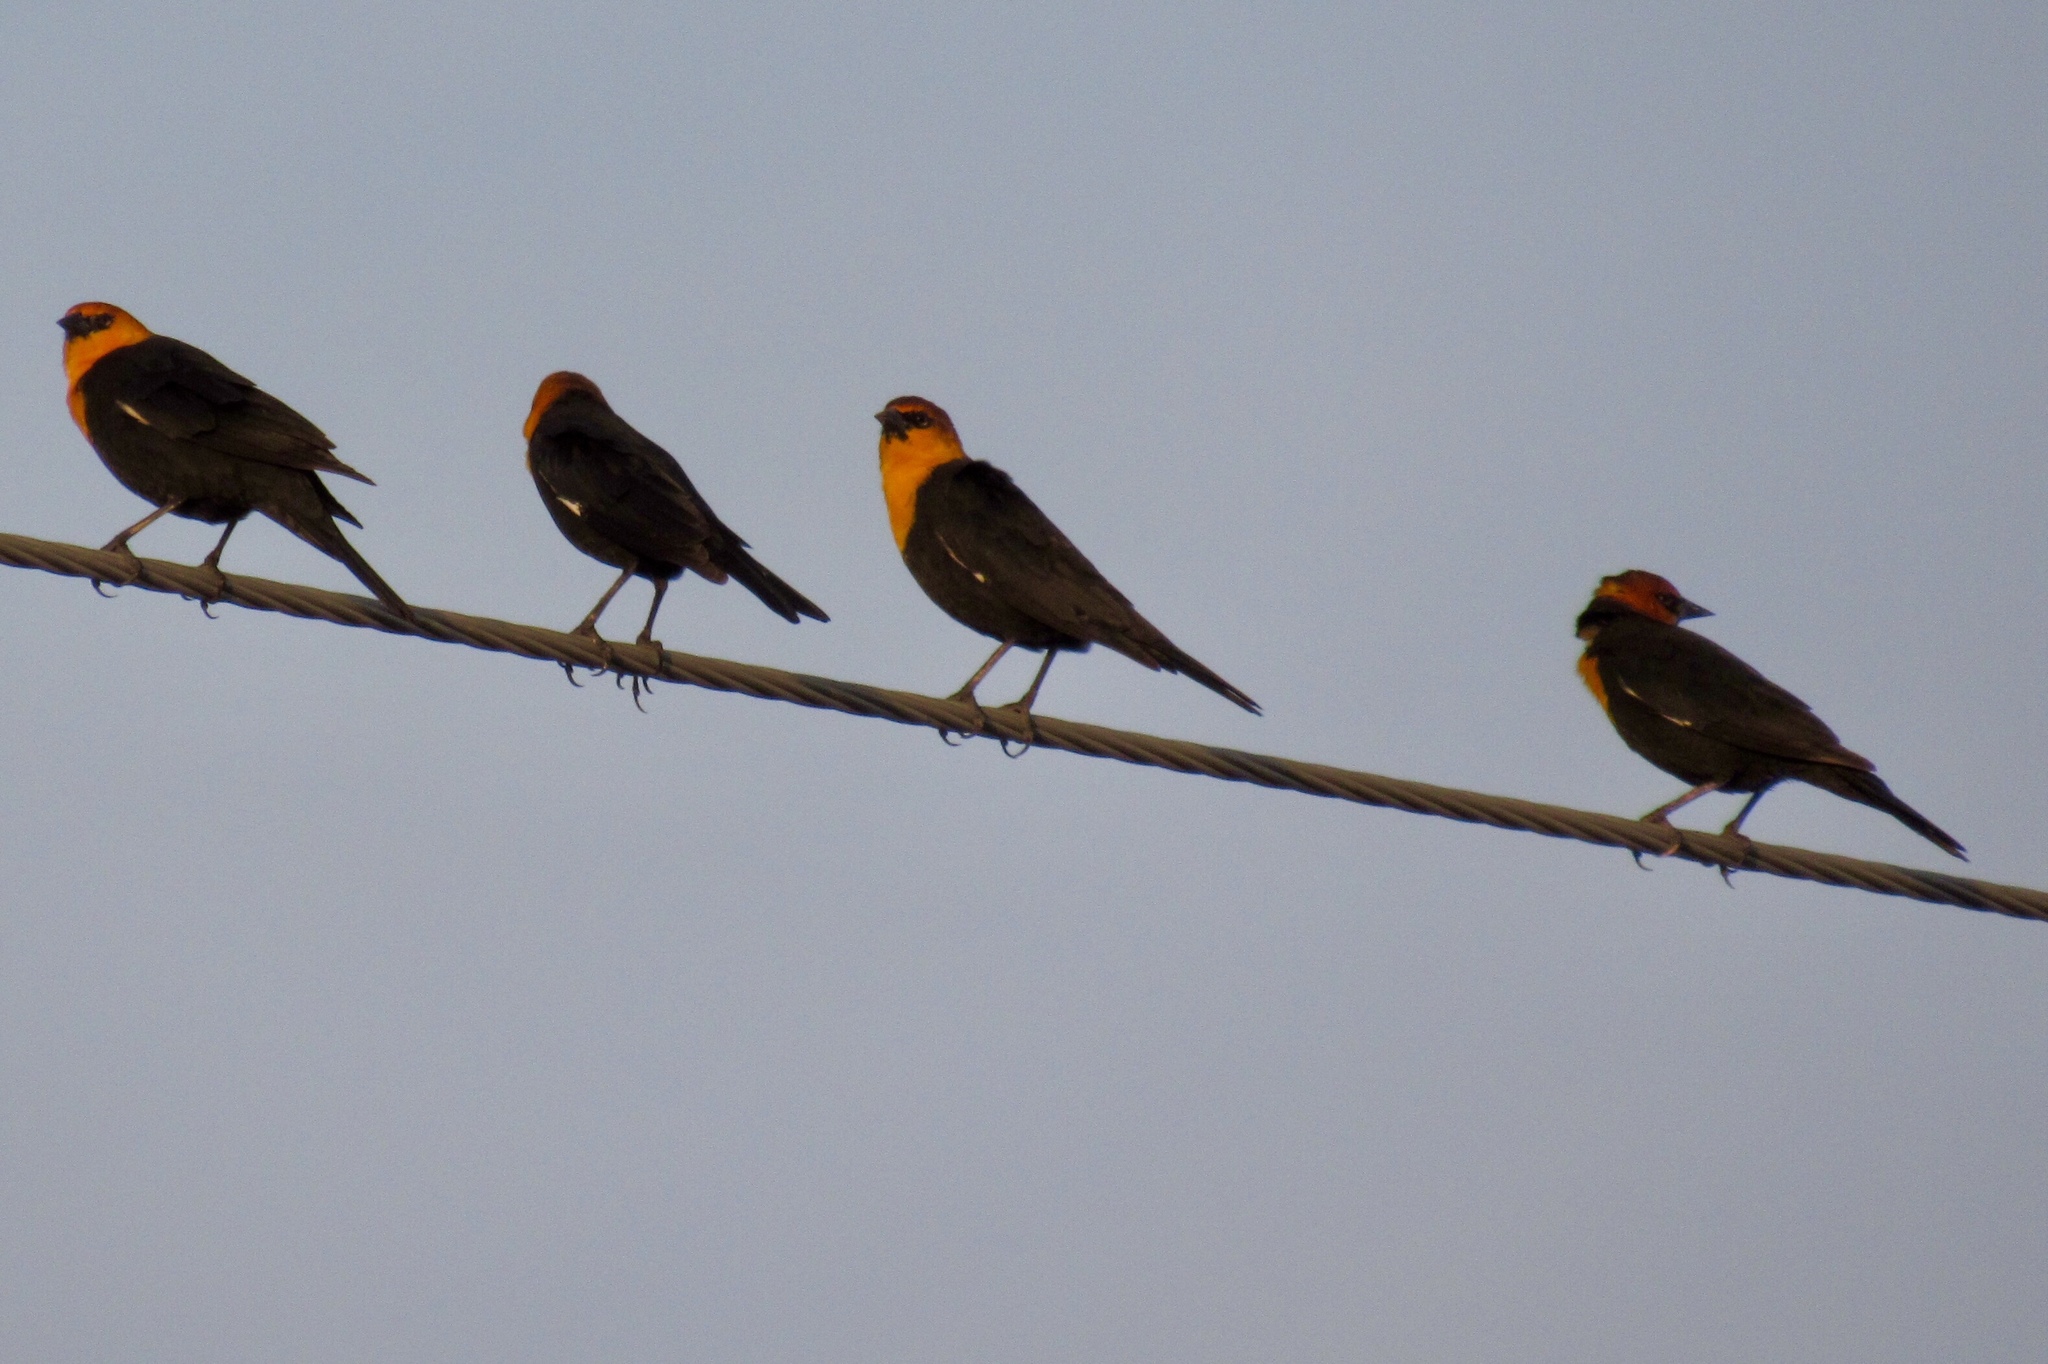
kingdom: Animalia
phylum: Chordata
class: Aves
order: Passeriformes
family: Icteridae
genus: Xanthocephalus
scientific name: Xanthocephalus xanthocephalus
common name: Yellow-headed blackbird
